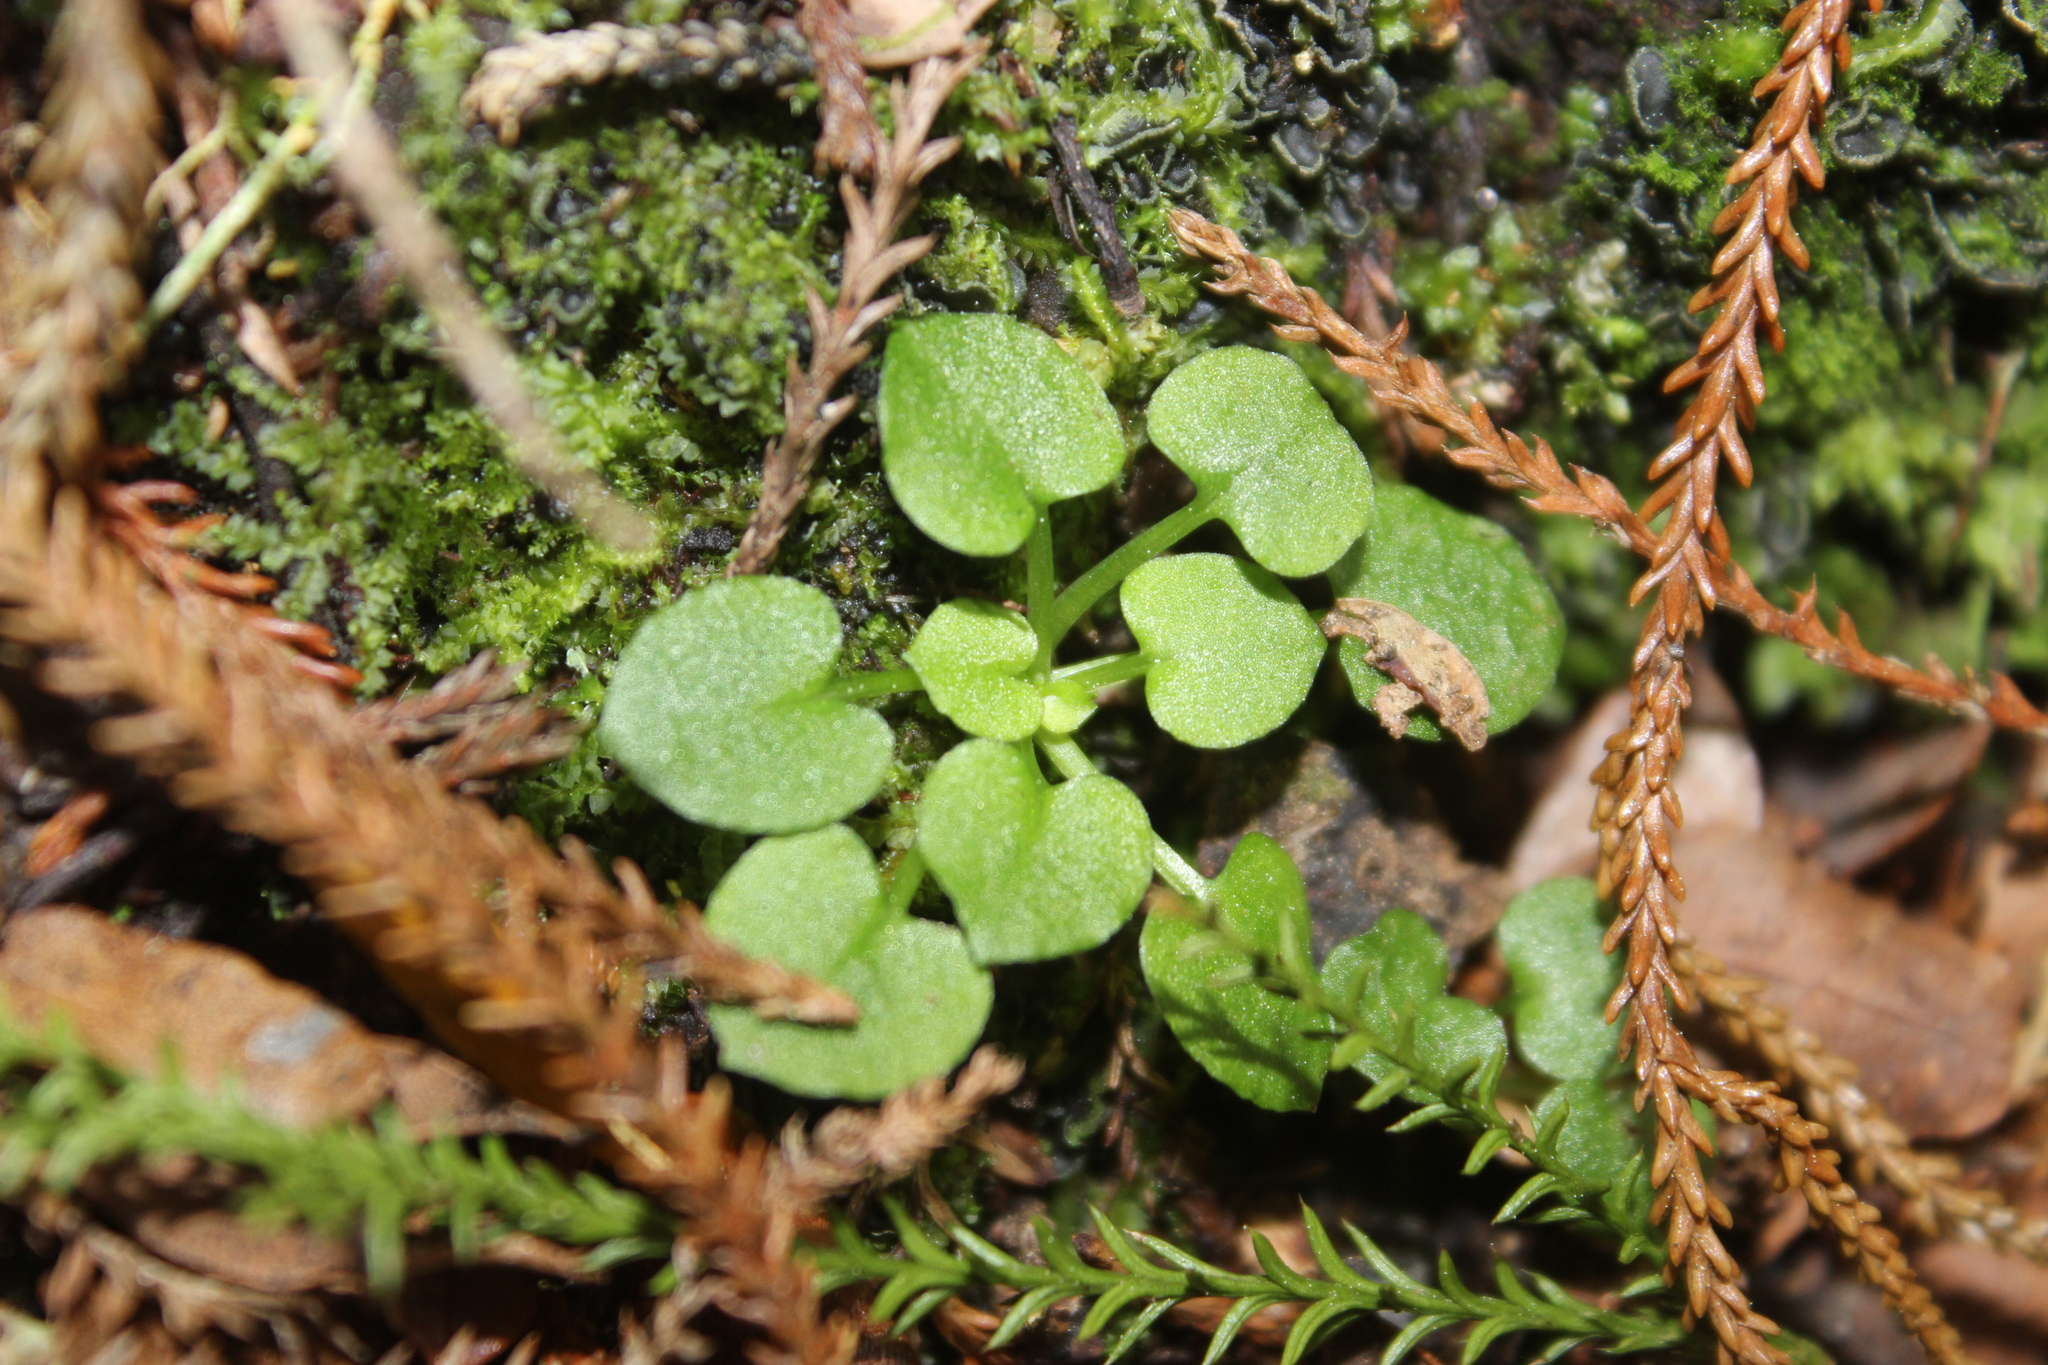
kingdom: Plantae
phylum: Tracheophyta
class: Liliopsida
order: Asparagales
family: Orchidaceae
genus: Pterostylis
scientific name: Pterostylis alobula
